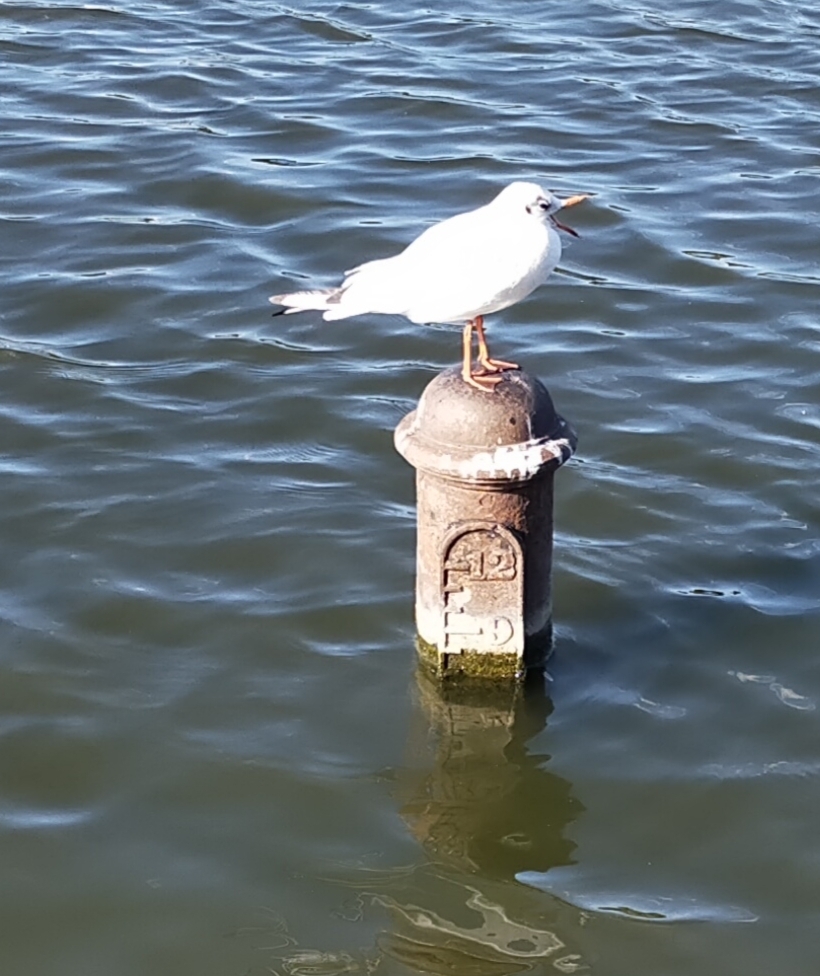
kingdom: Animalia
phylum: Chordata
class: Aves
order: Charadriiformes
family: Laridae
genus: Chroicocephalus
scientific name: Chroicocephalus ridibundus
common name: Black-headed gull
